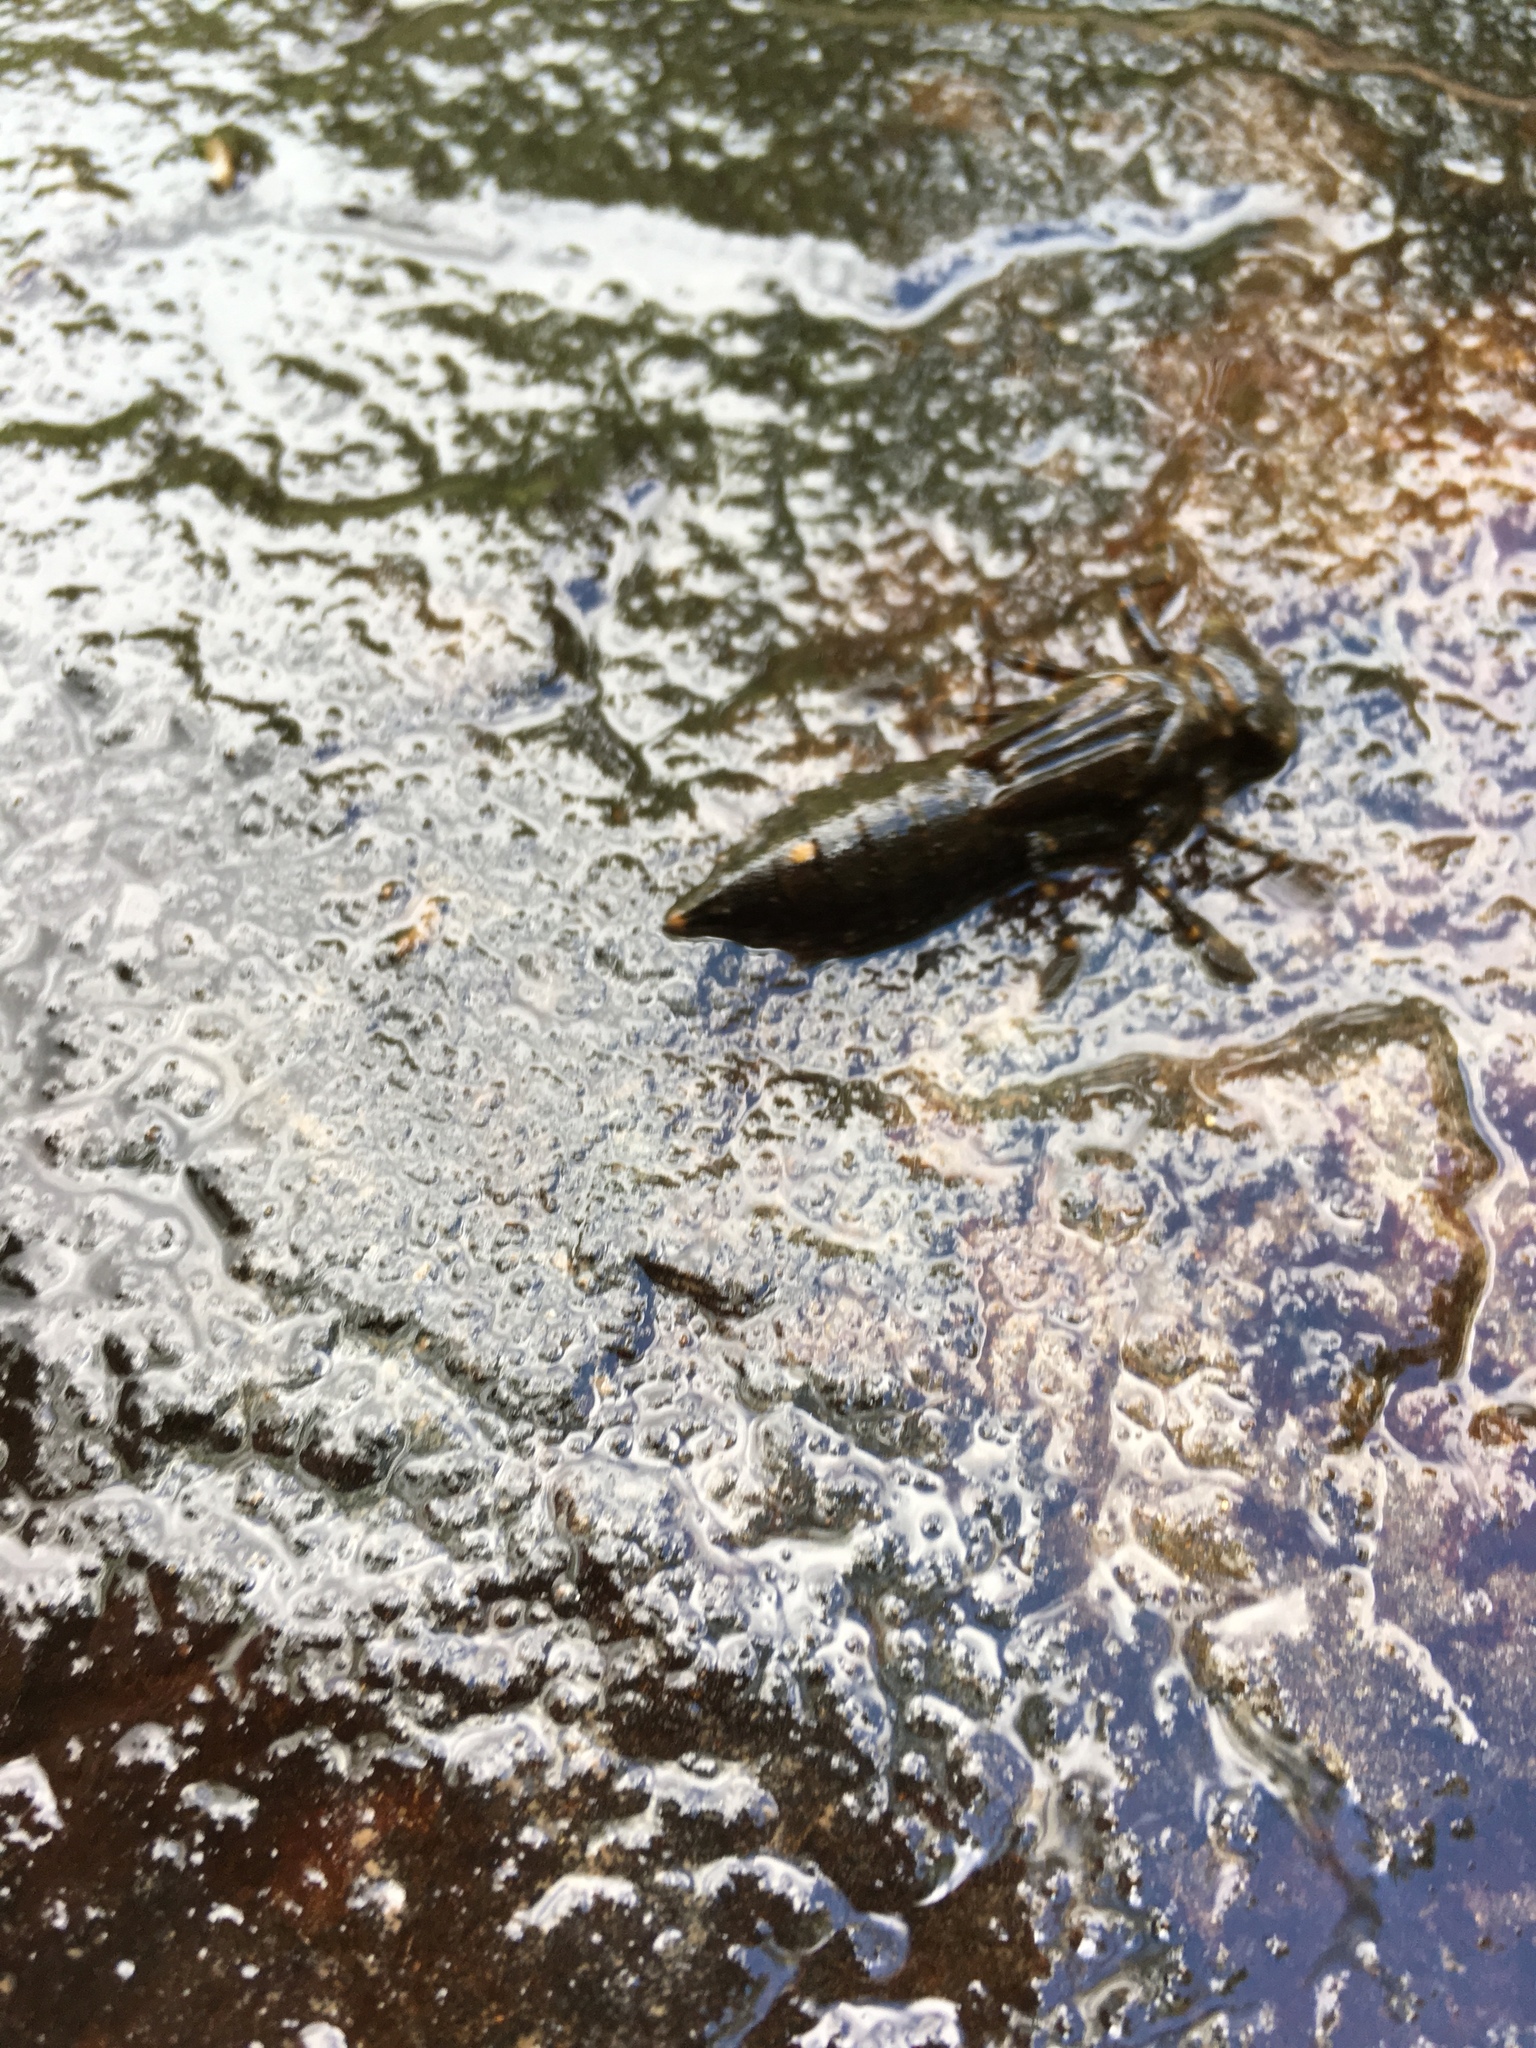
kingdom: Animalia
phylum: Arthropoda
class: Insecta
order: Odonata
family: Aeshnidae
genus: Boyeria
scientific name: Boyeria
